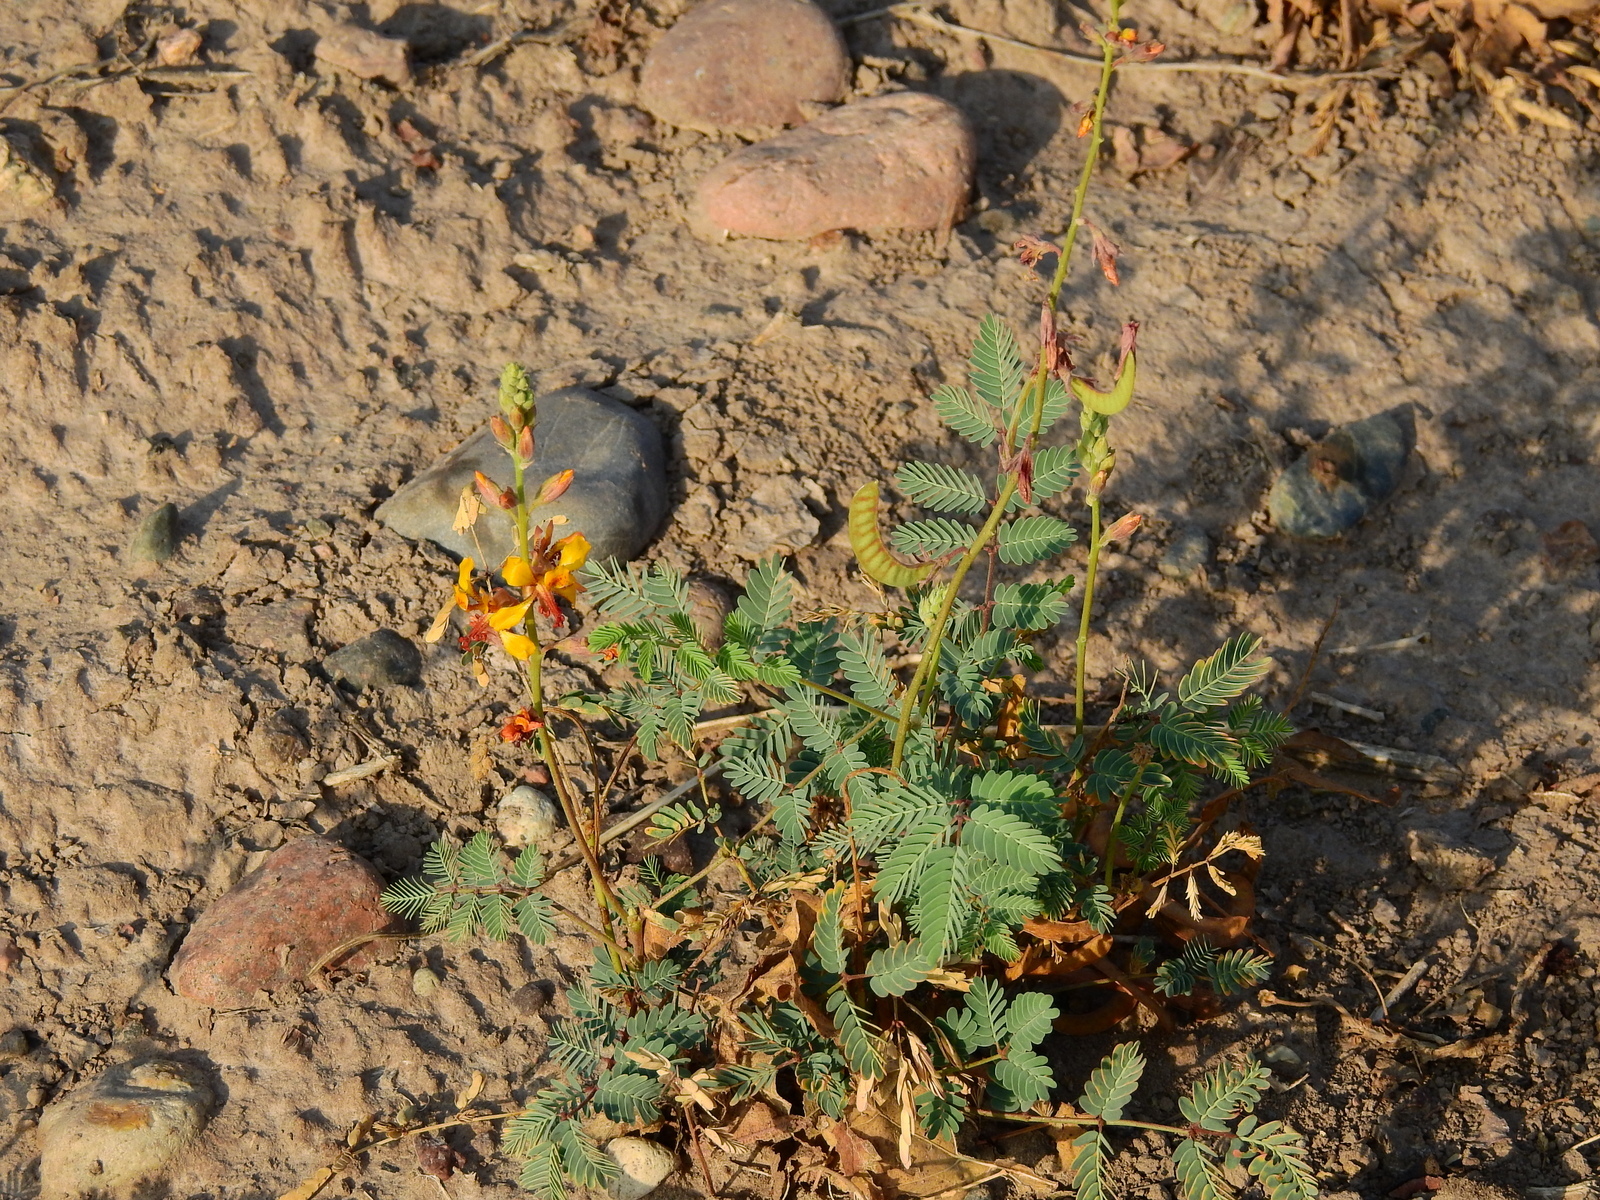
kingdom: Plantae
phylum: Tracheophyta
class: Magnoliopsida
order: Fabales
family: Fabaceae
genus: Hoffmannseggia
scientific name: Hoffmannseggia glauca
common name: Pignut
